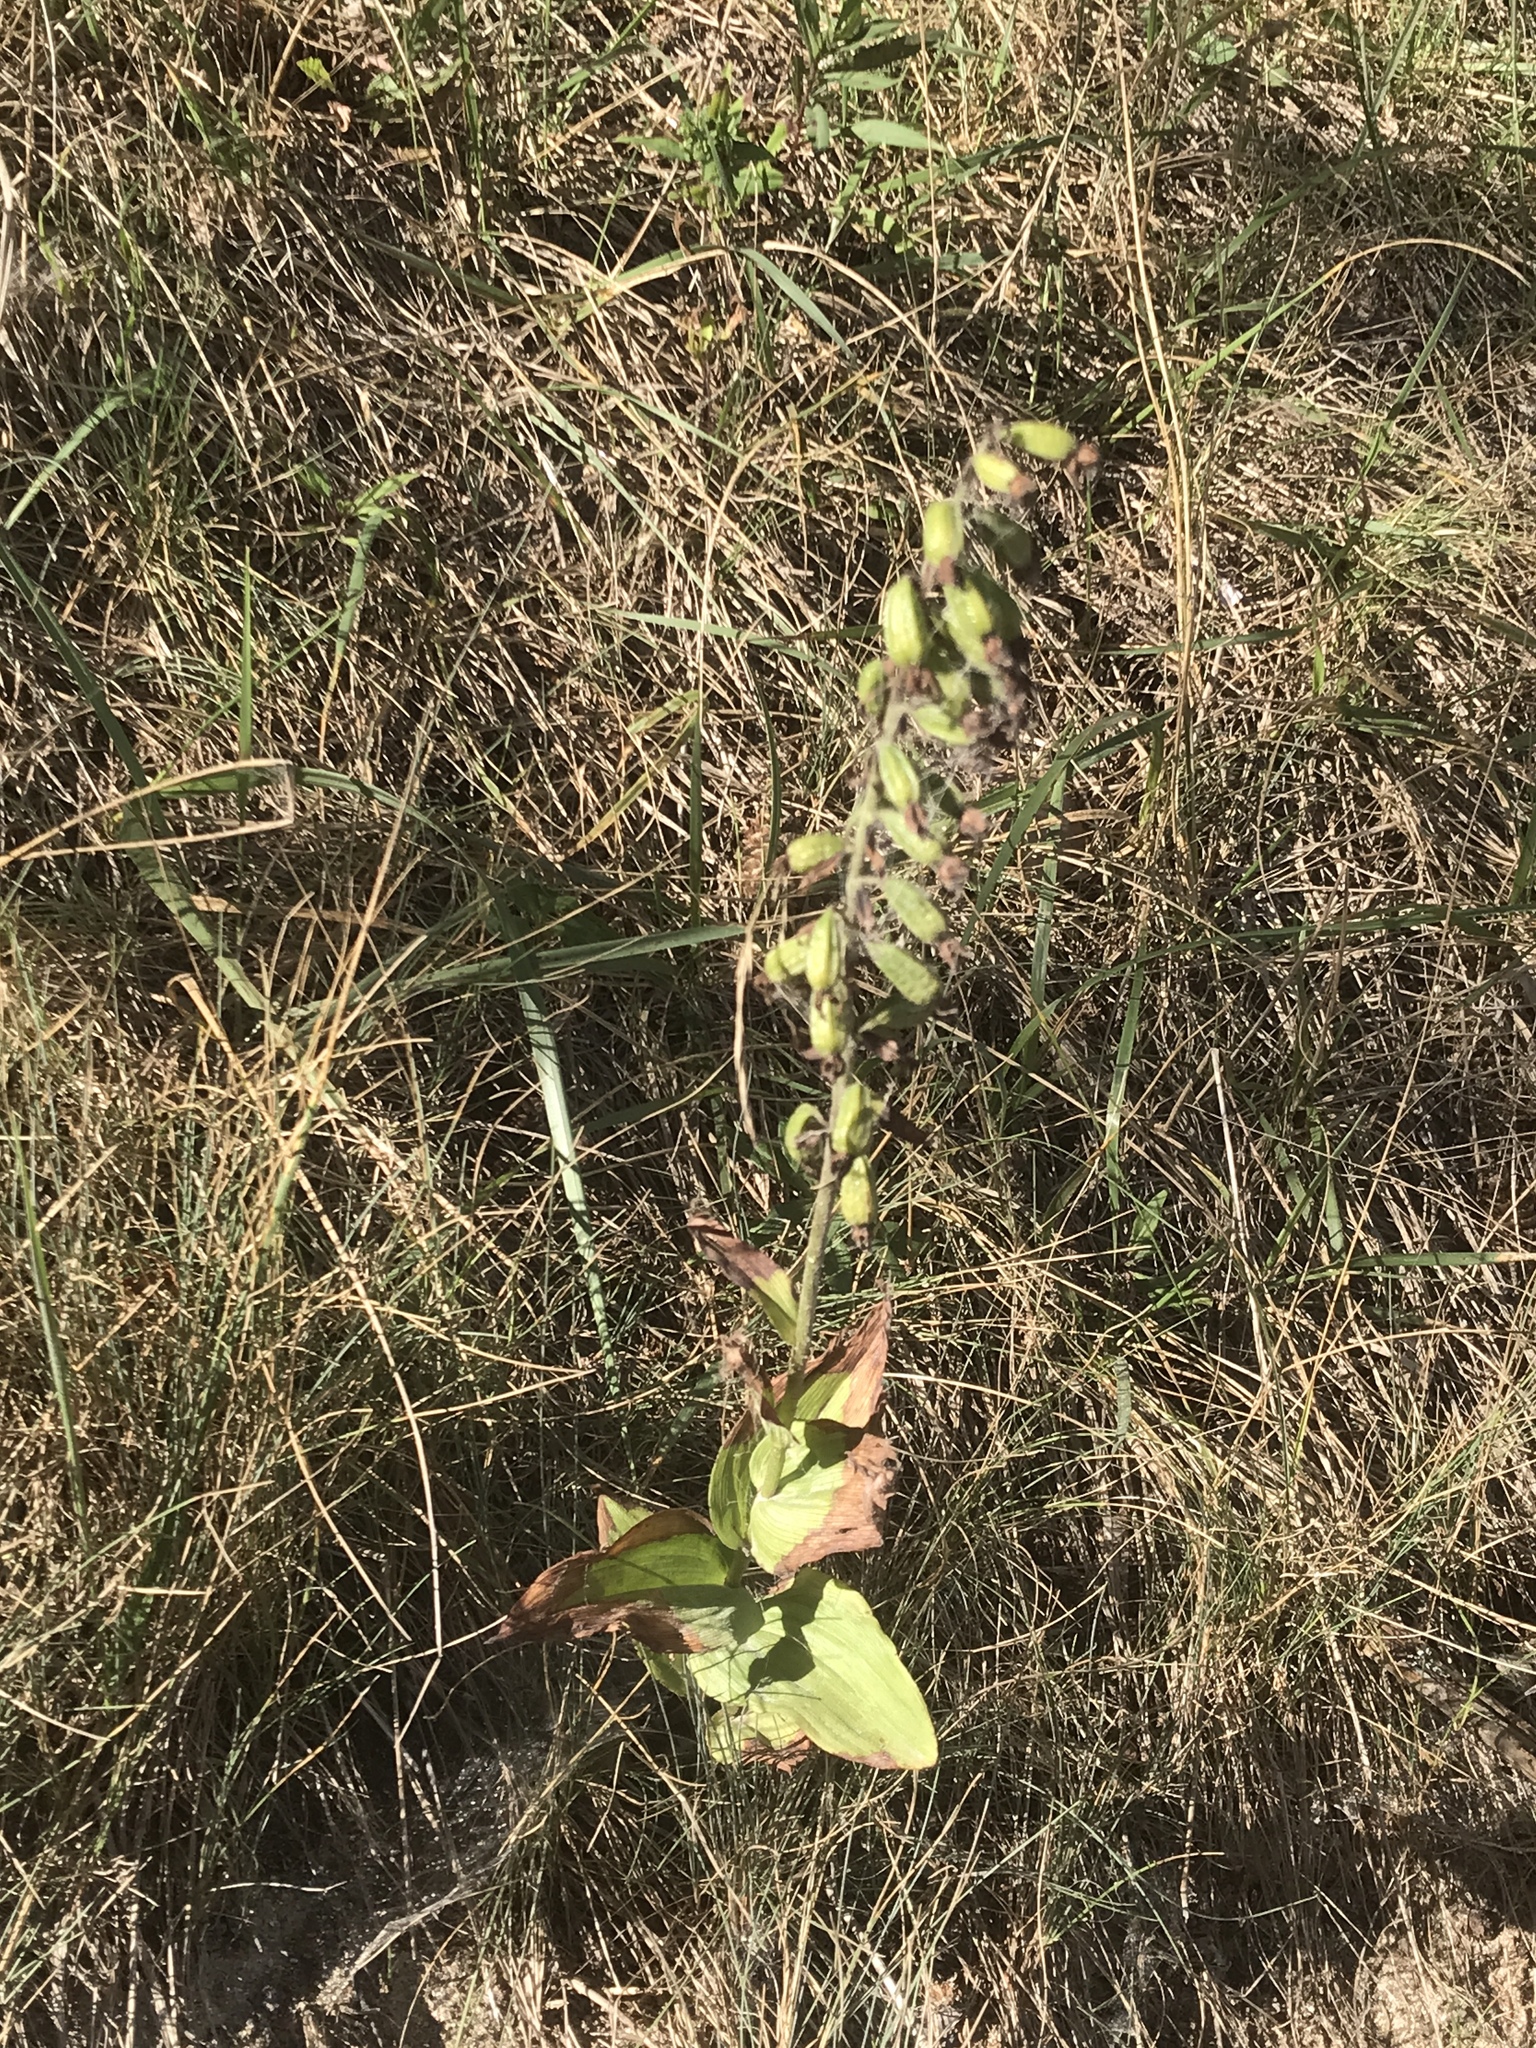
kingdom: Plantae
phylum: Tracheophyta
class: Liliopsida
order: Asparagales
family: Orchidaceae
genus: Epipactis
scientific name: Epipactis helleborine
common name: Broad-leaved helleborine
